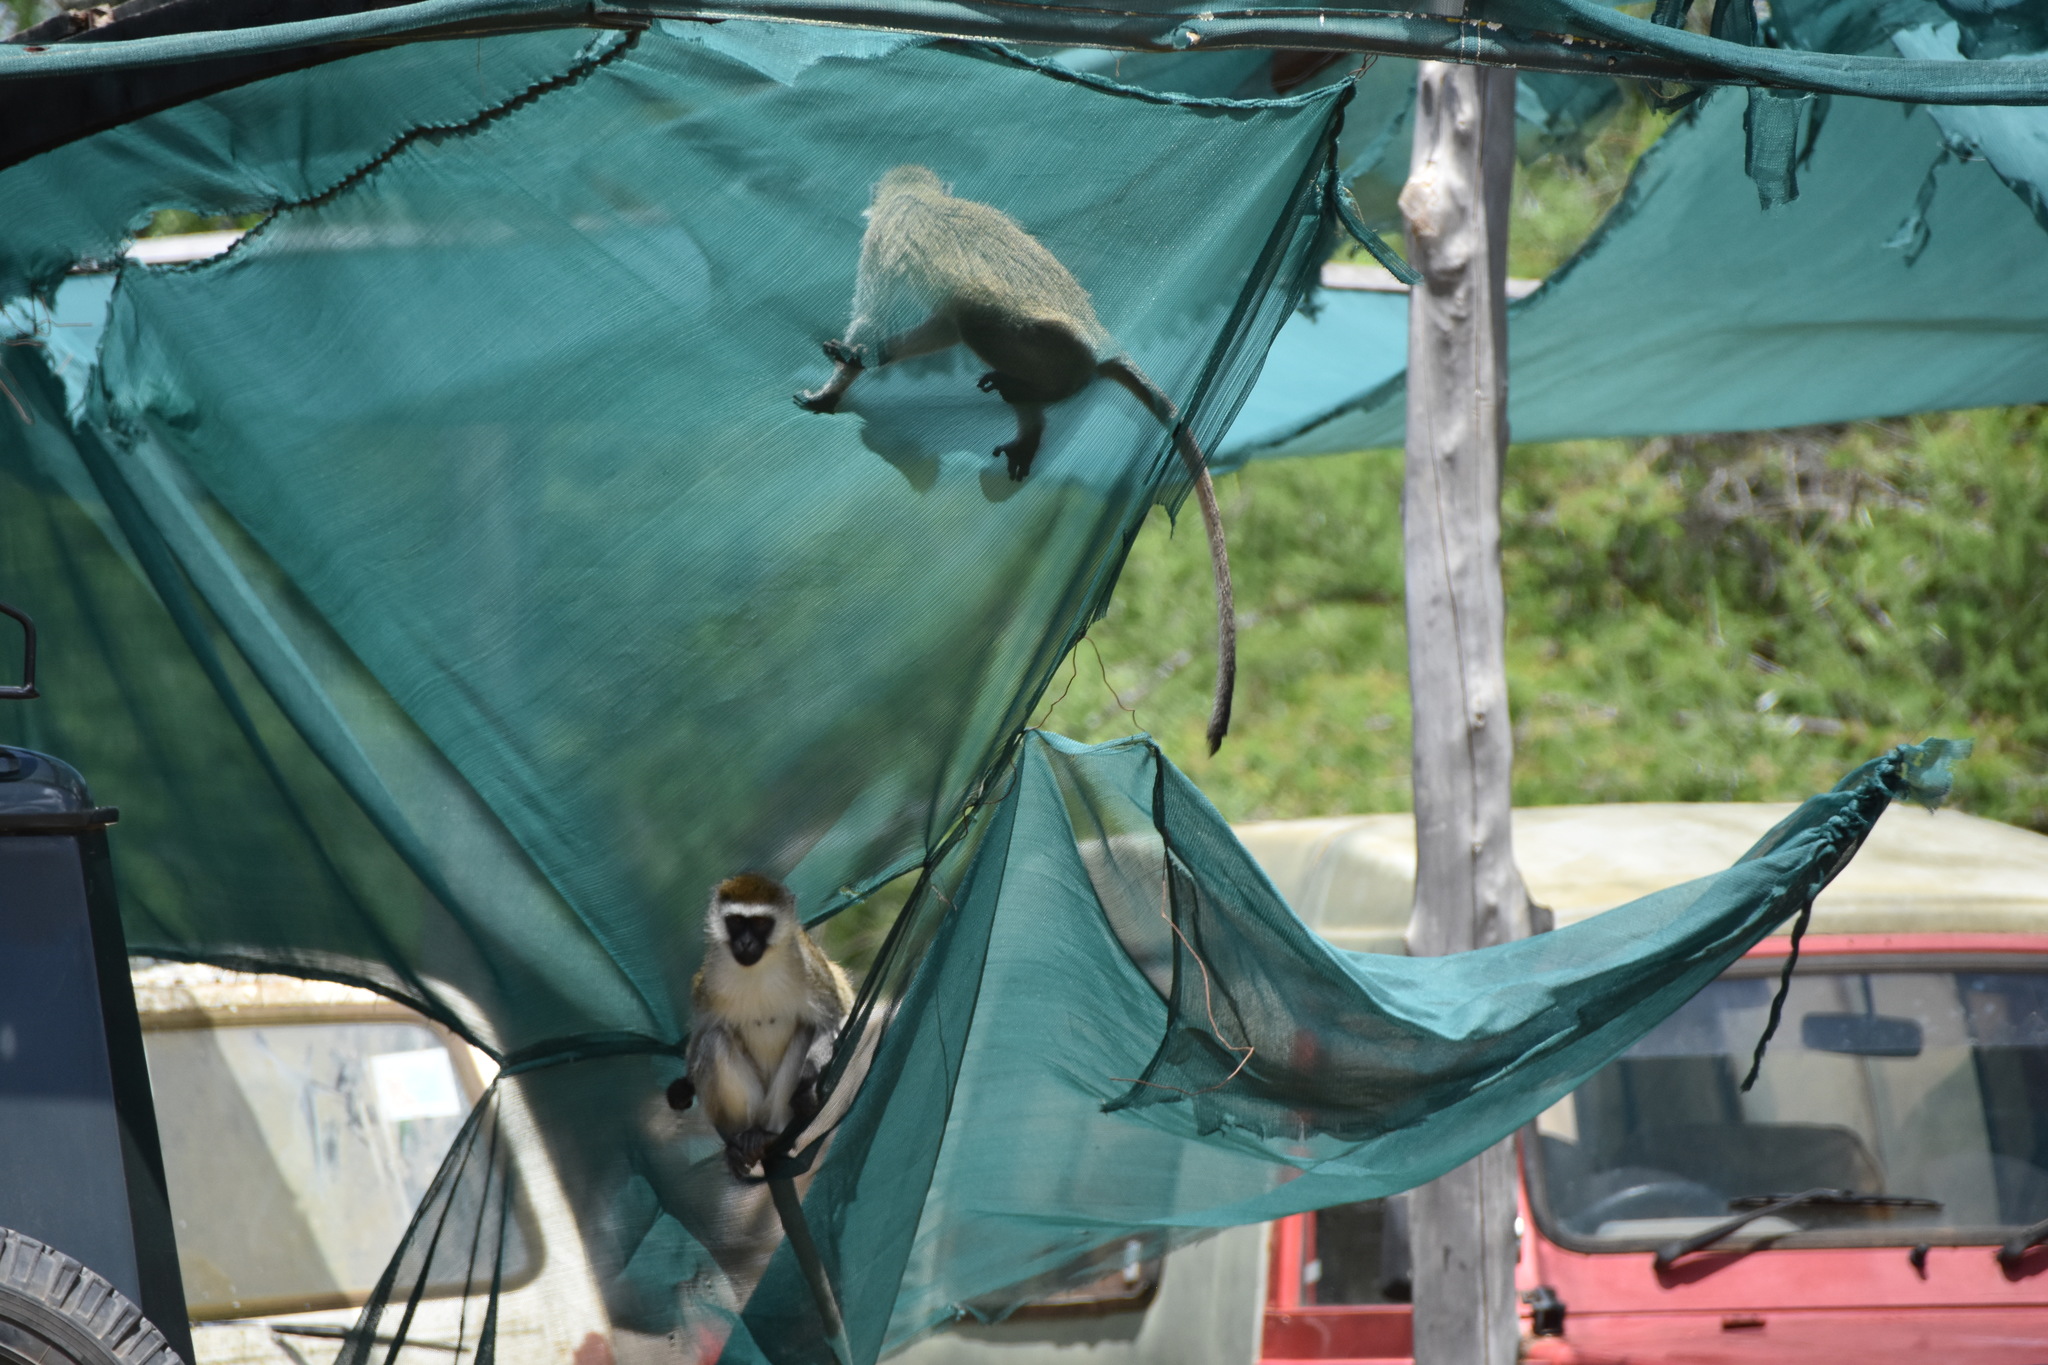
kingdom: Animalia
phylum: Chordata
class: Mammalia
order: Primates
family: Cercopithecidae
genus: Chlorocebus
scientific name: Chlorocebus pygerythrus
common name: Vervet monkey
